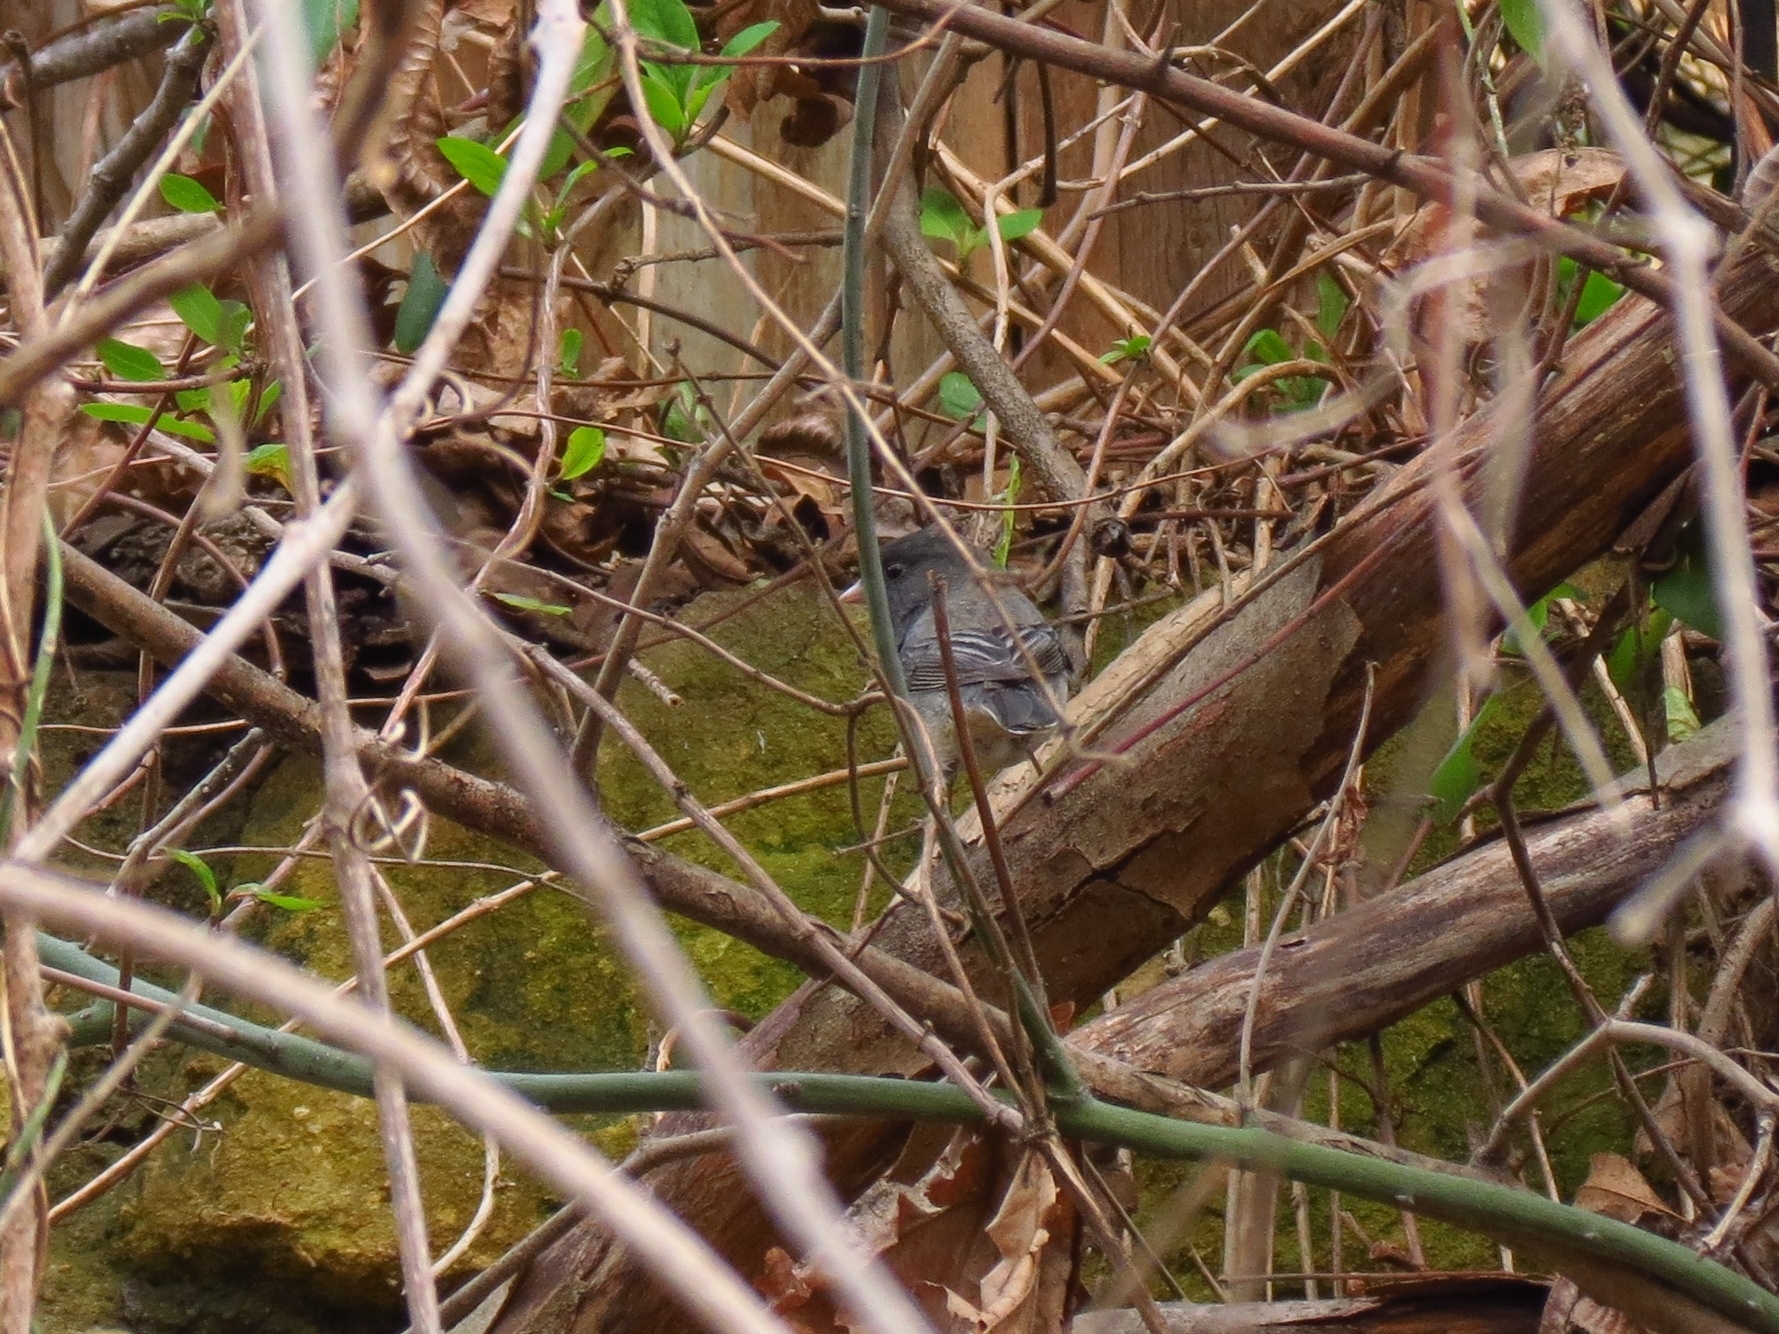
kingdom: Animalia
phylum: Chordata
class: Aves
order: Passeriformes
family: Passerellidae
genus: Junco
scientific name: Junco hyemalis
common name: Dark-eyed junco
